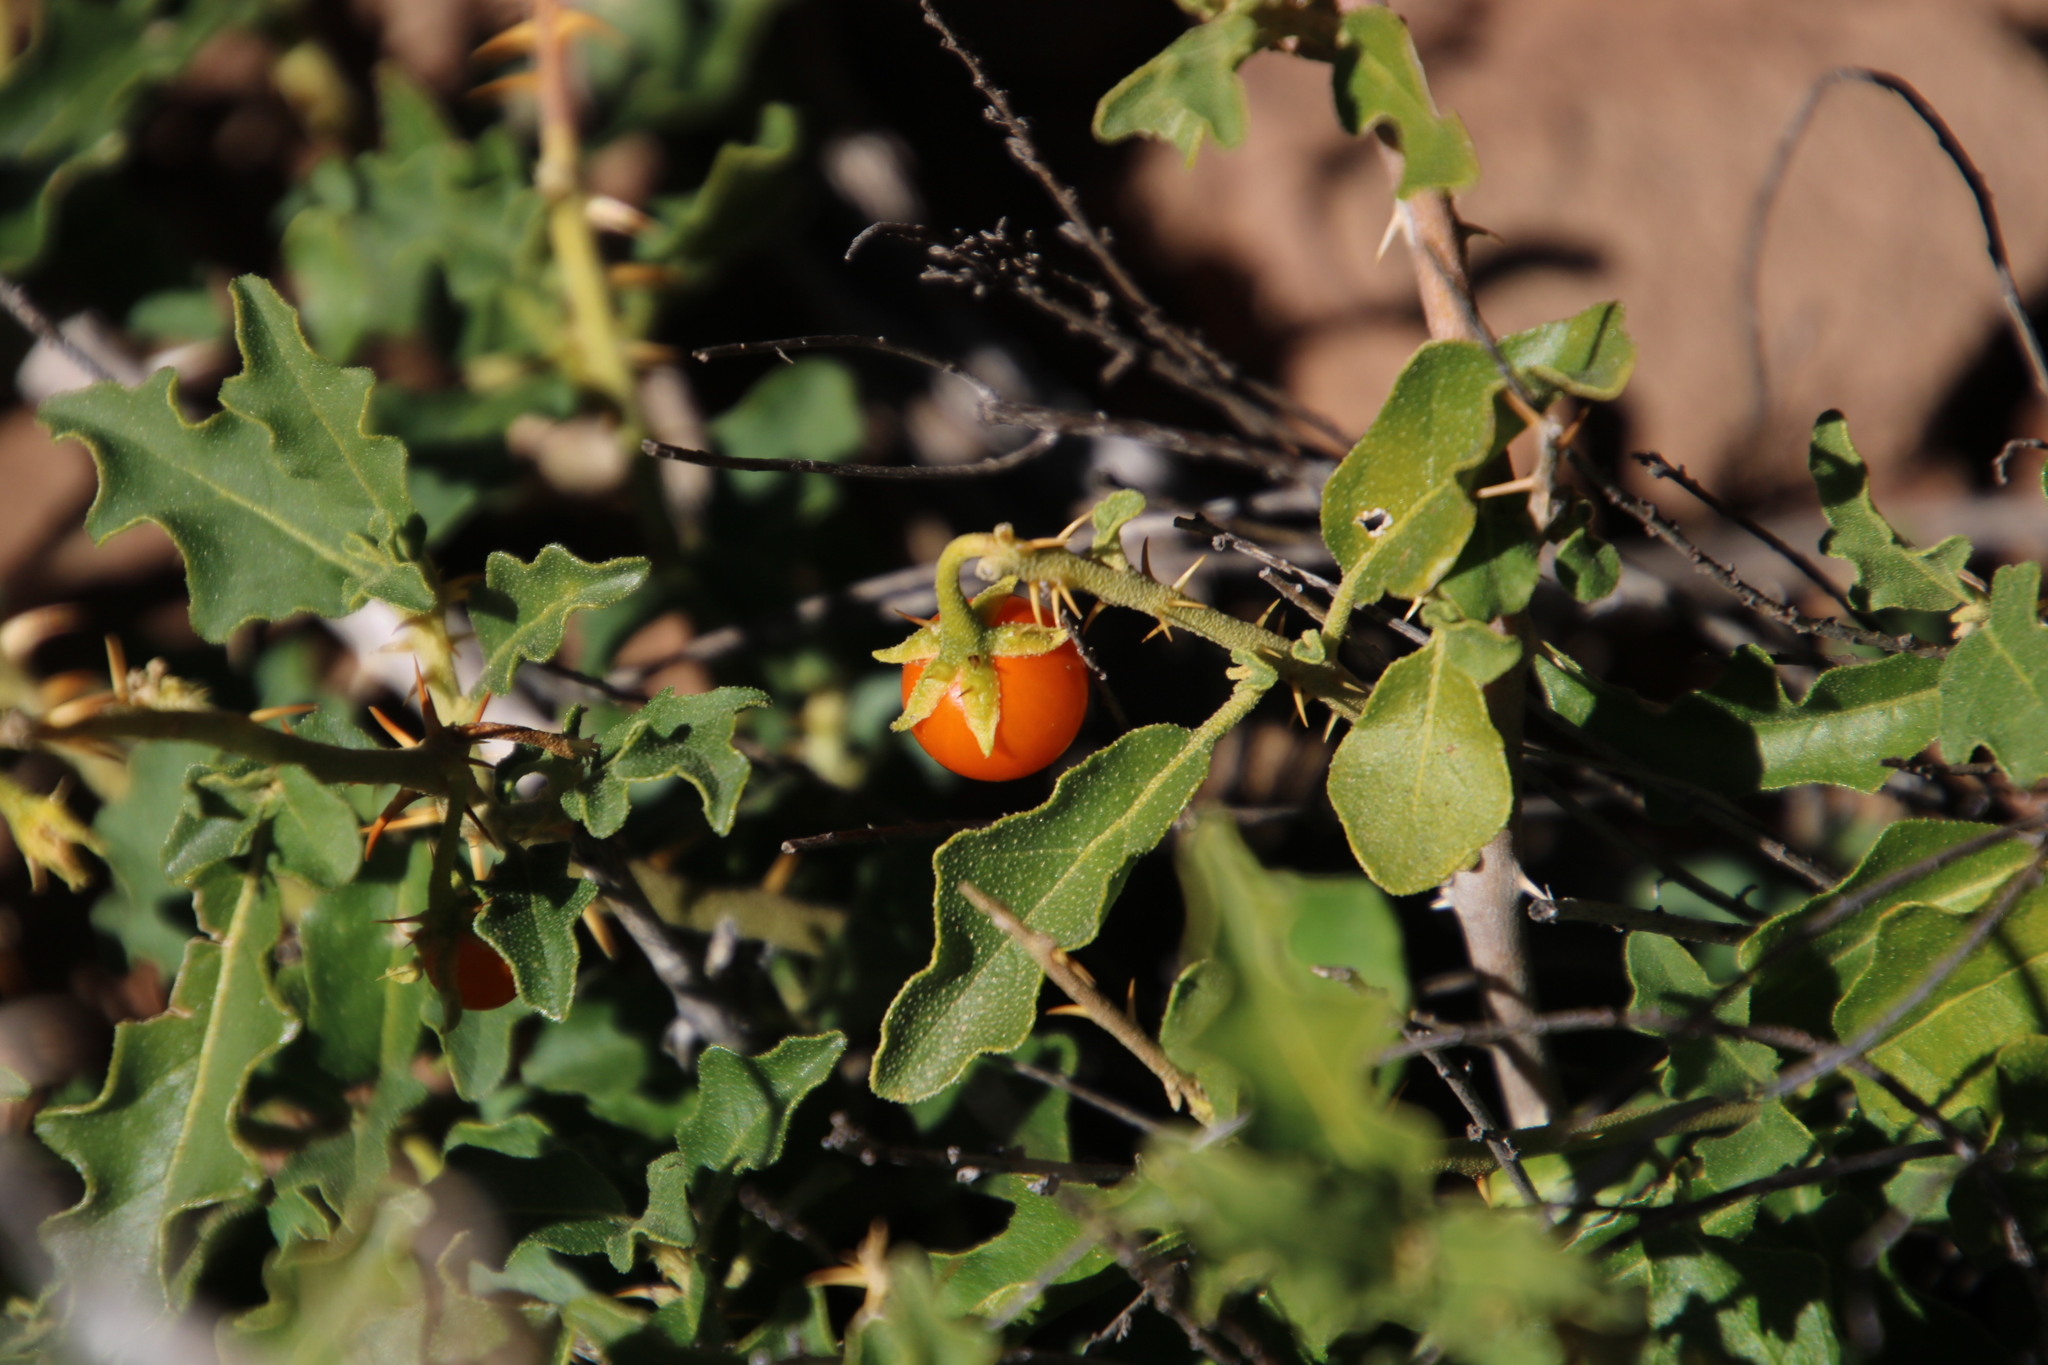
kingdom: Plantae
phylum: Tracheophyta
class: Magnoliopsida
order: Solanales
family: Solanaceae
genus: Solanum
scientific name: Solanum tomentosum
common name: Wild aubergine
